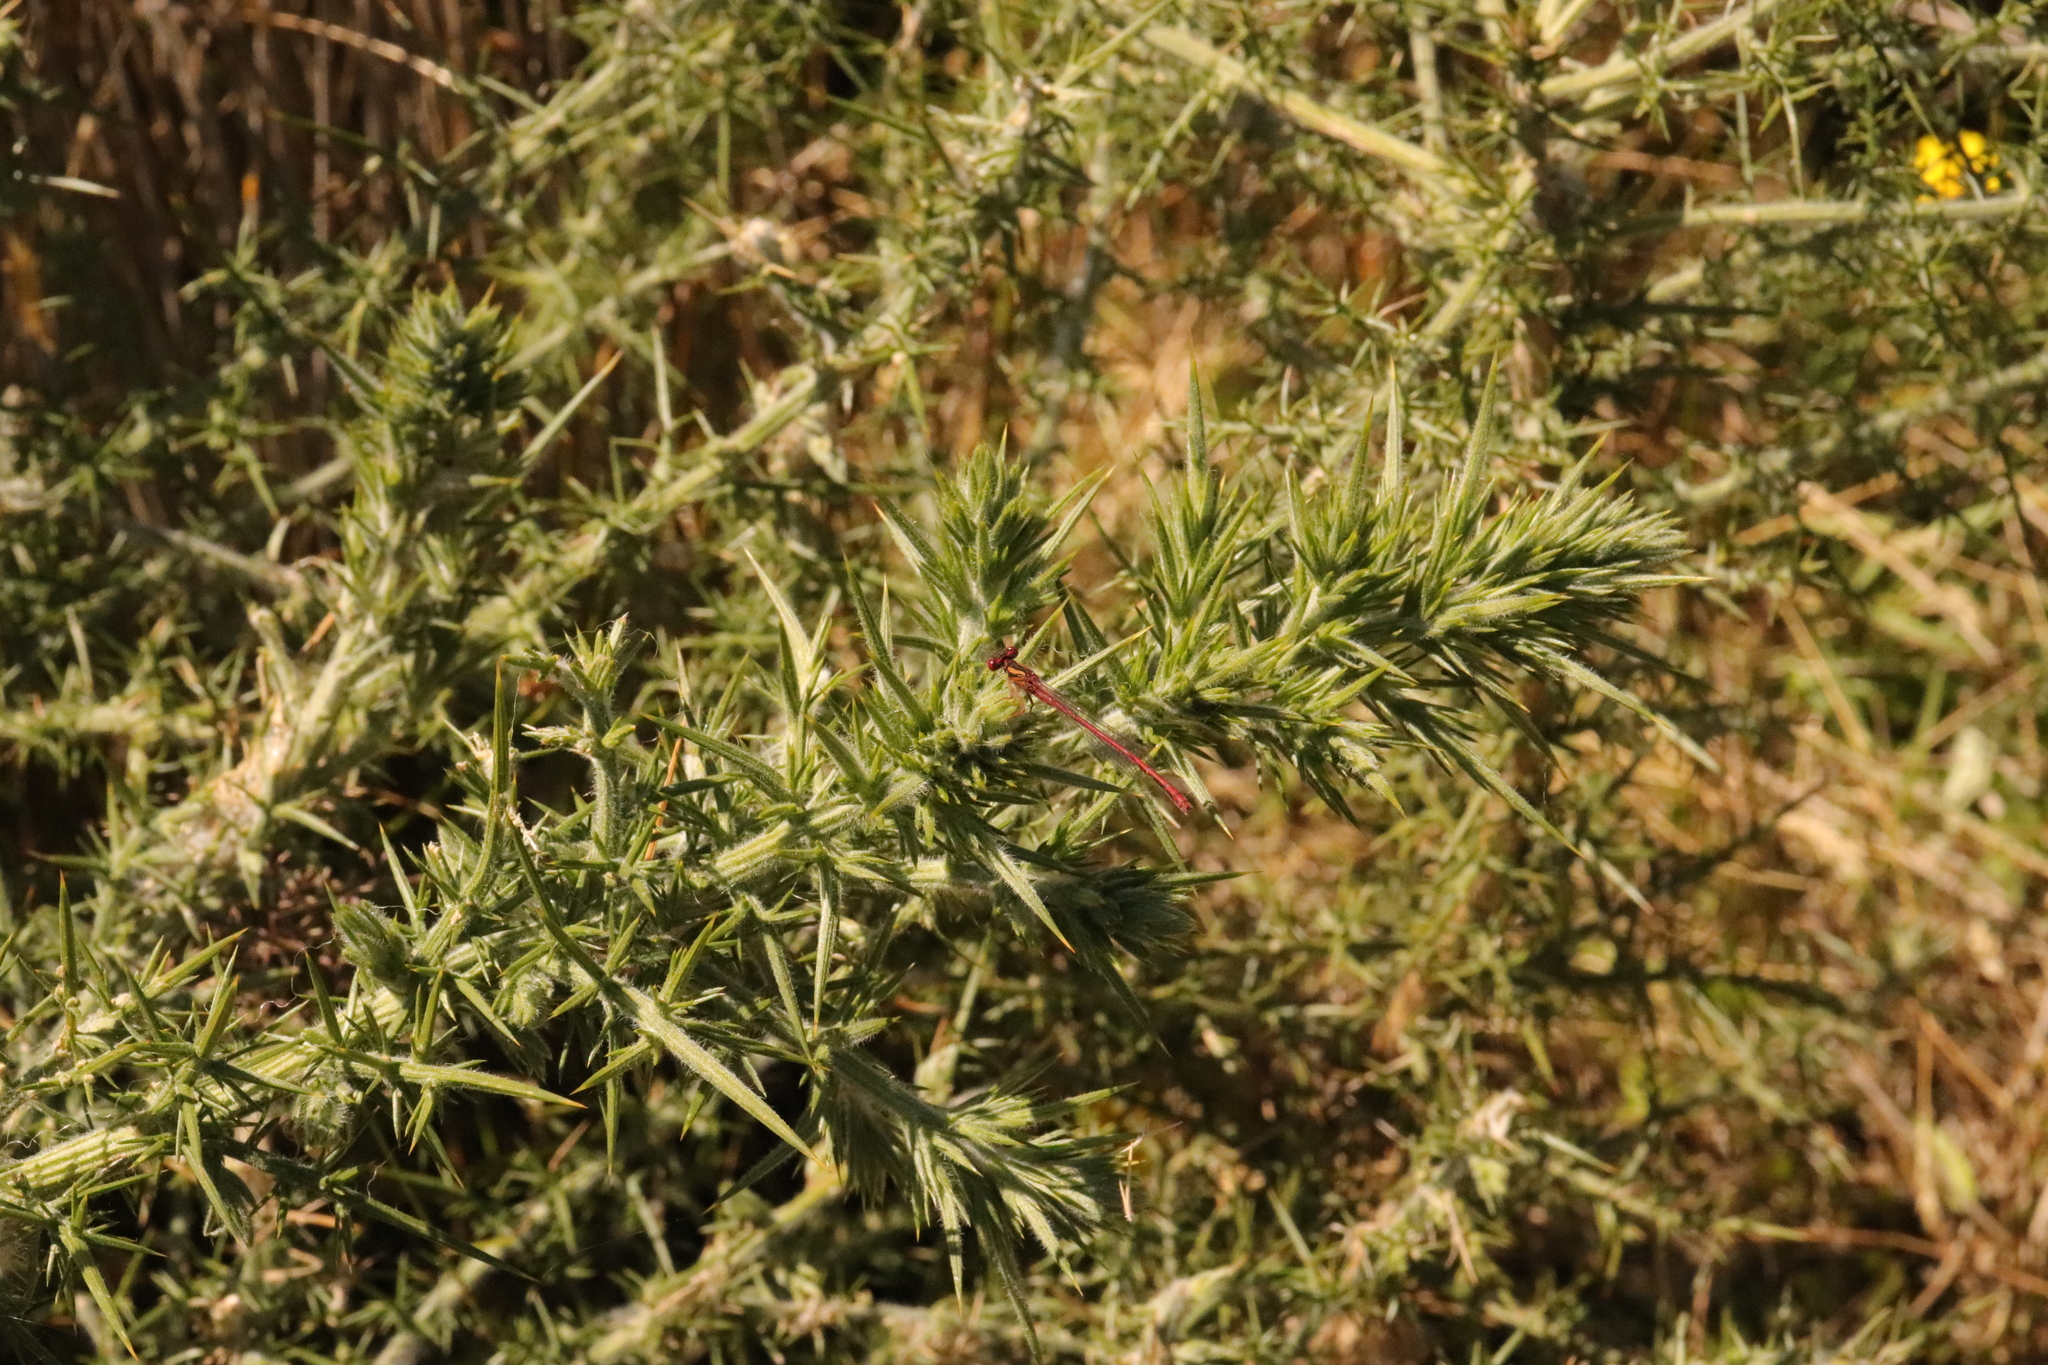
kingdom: Animalia
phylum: Arthropoda
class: Insecta
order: Odonata
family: Coenagrionidae
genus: Xanthocnemis
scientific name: Xanthocnemis zealandica
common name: Common redcoat damselfly
